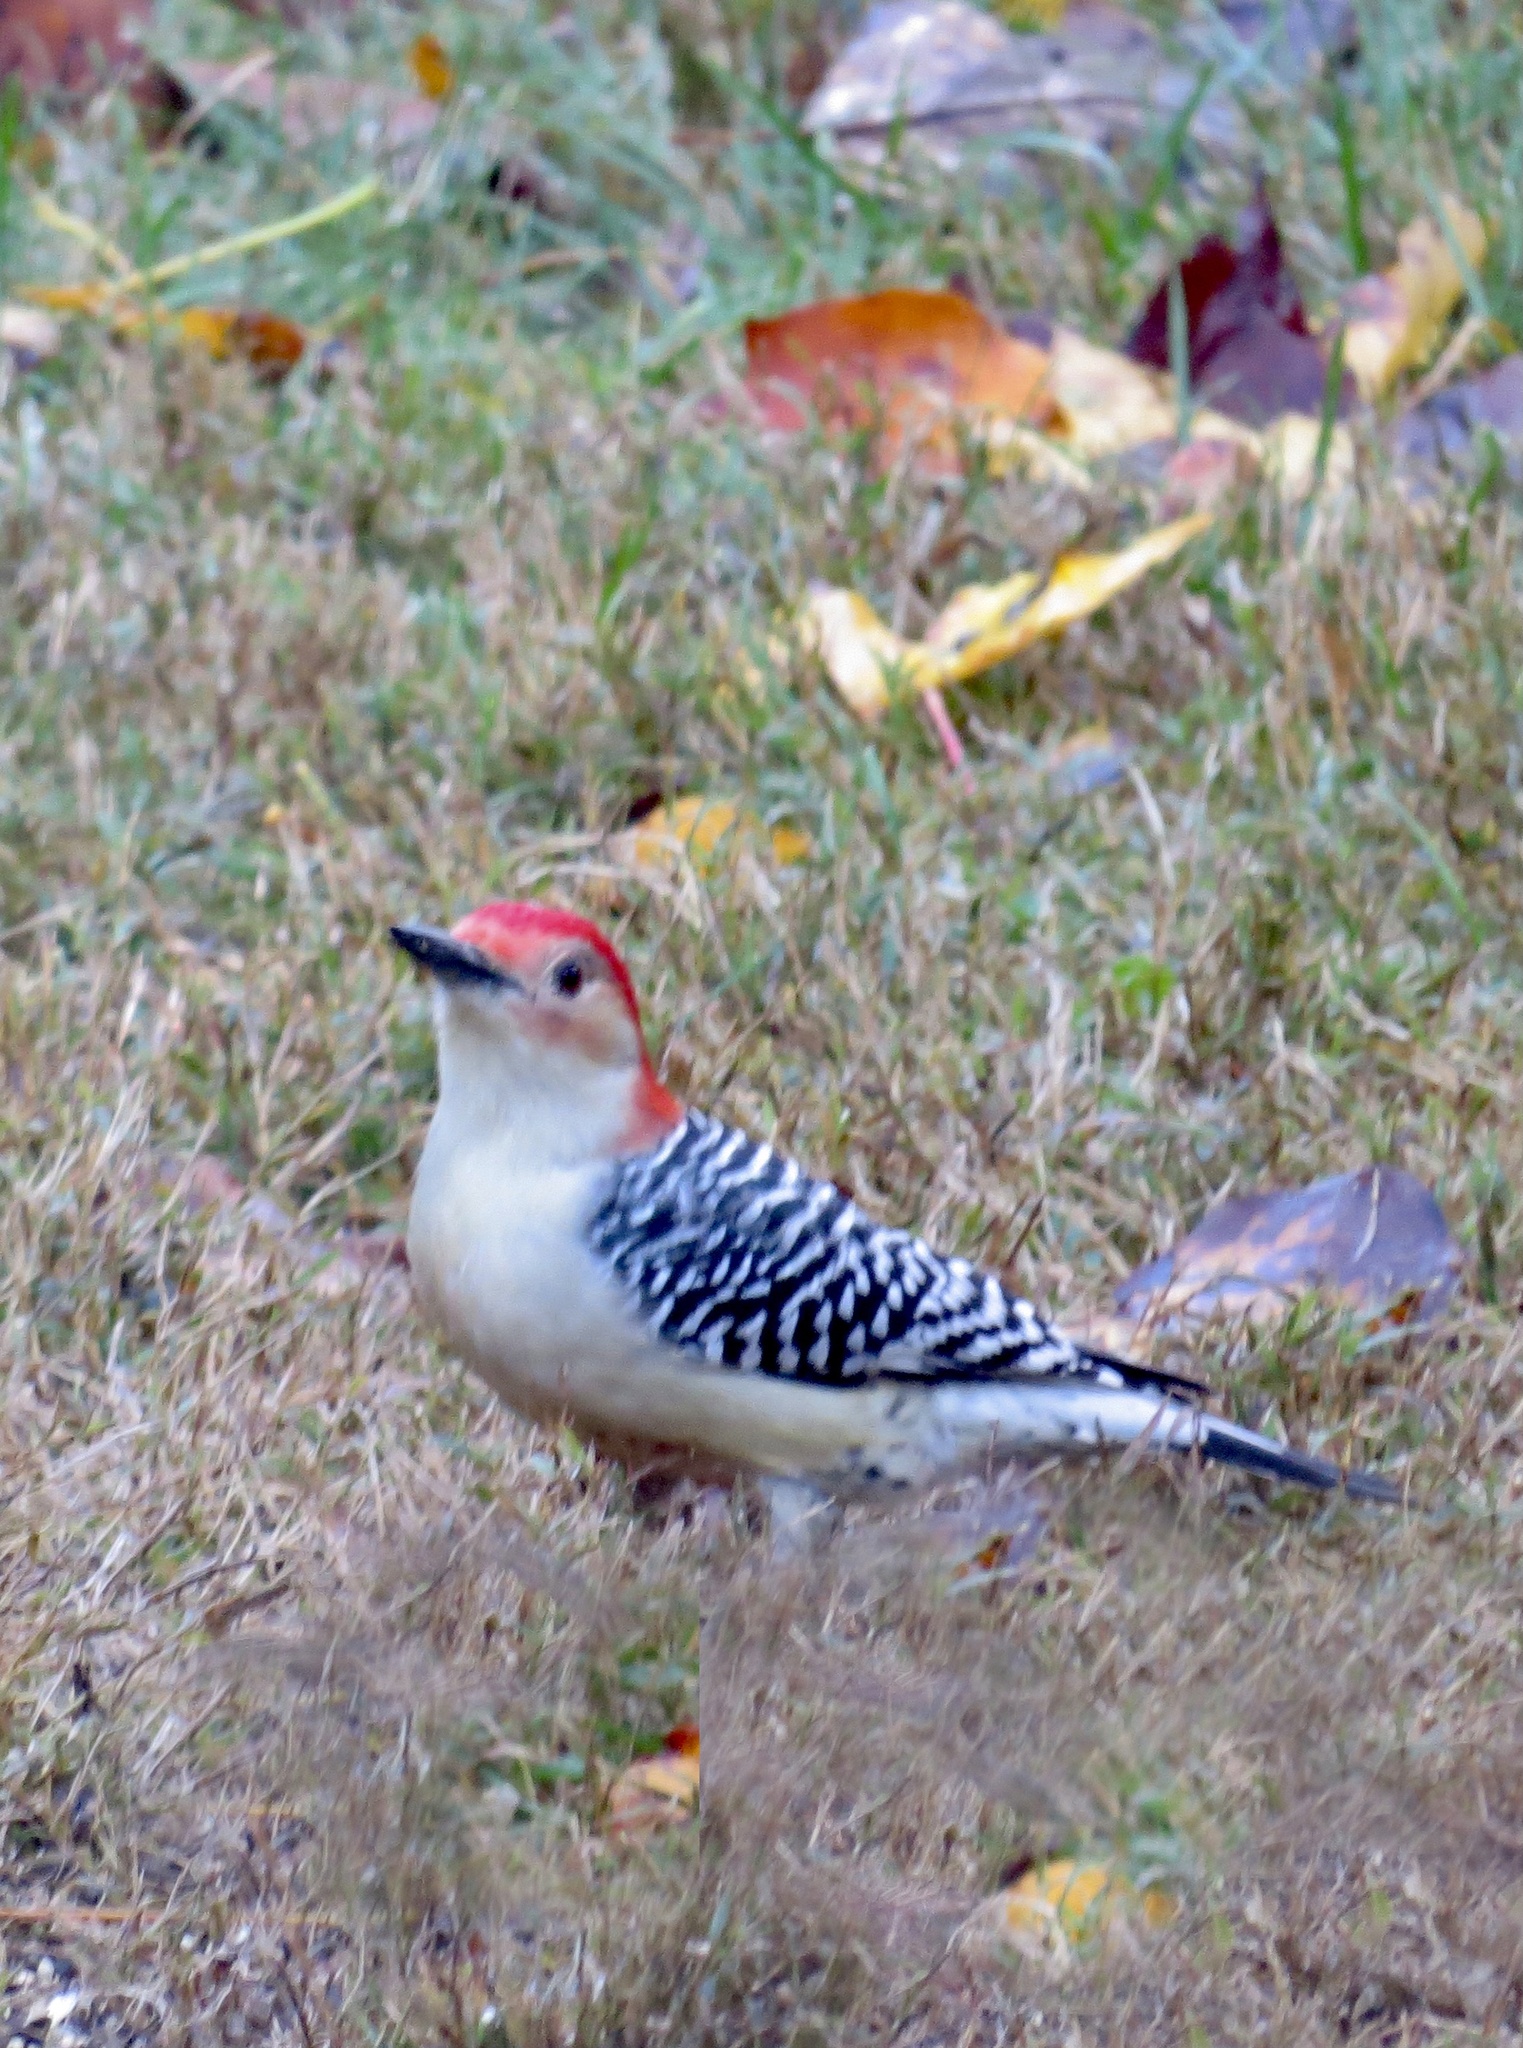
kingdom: Animalia
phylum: Chordata
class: Aves
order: Piciformes
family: Picidae
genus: Melanerpes
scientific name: Melanerpes carolinus
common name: Red-bellied woodpecker
